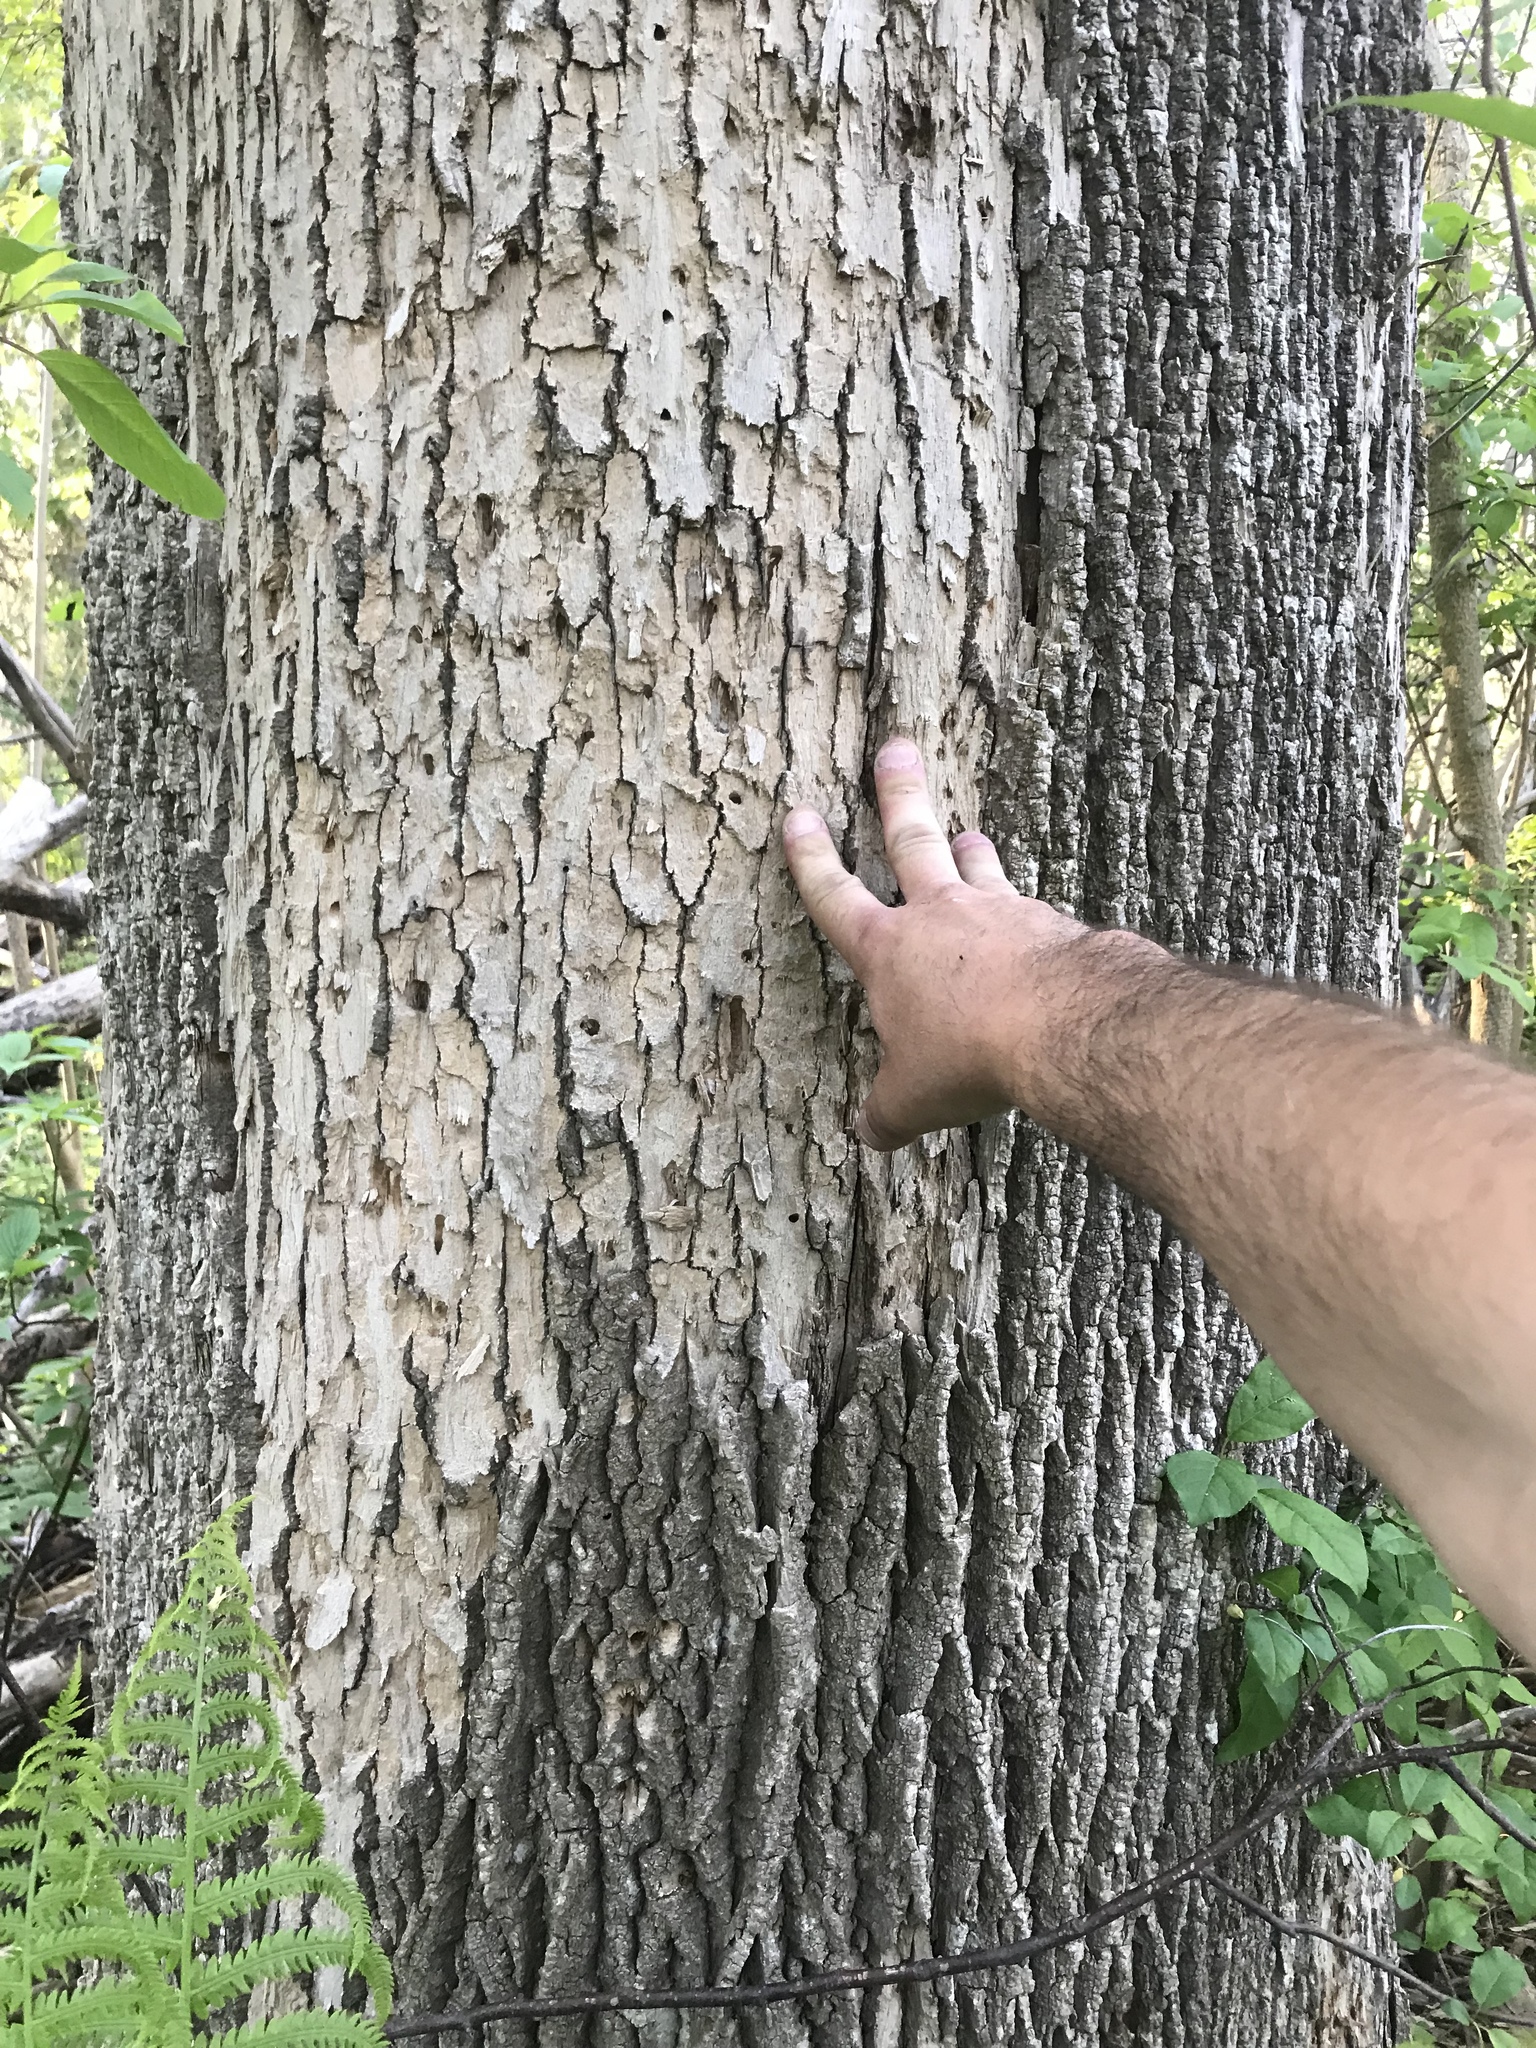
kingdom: Animalia
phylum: Arthropoda
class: Insecta
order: Coleoptera
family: Buprestidae
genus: Agrilus
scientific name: Agrilus planipennis
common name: Emerald ash borer
